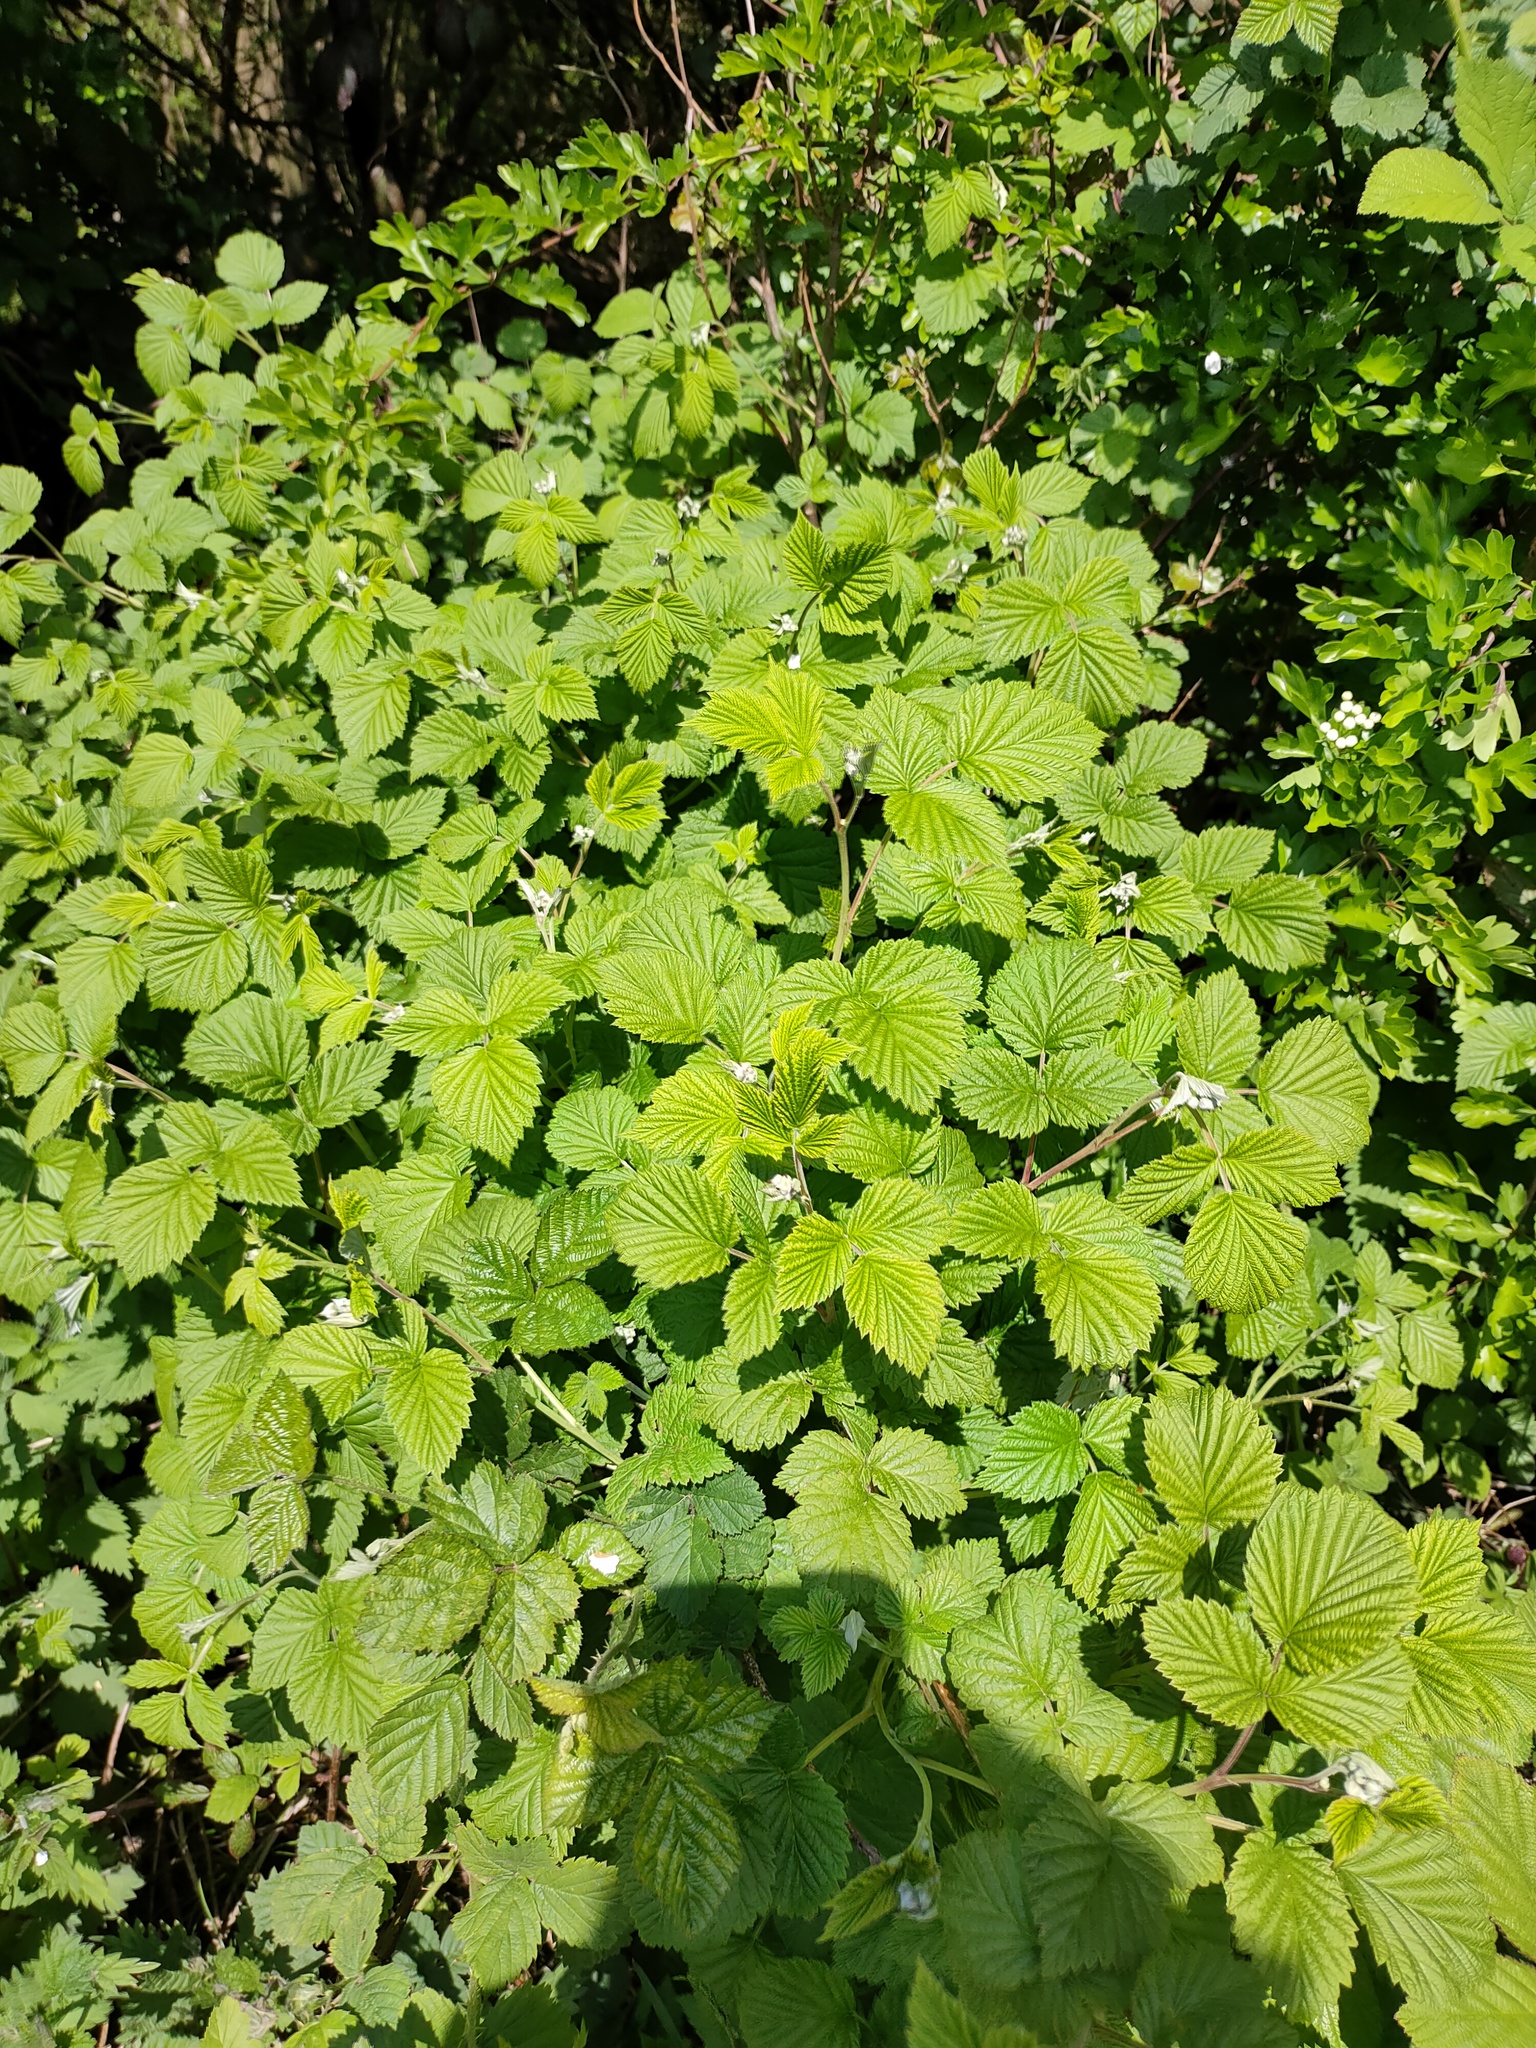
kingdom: Plantae
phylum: Tracheophyta
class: Magnoliopsida
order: Rosales
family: Rosaceae
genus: Rubus
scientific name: Rubus idaeus
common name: Raspberry
